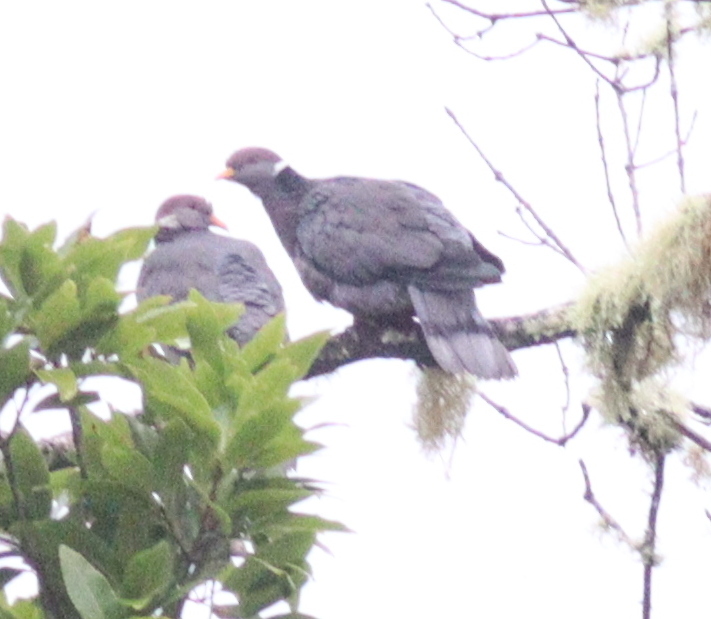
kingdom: Animalia
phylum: Chordata
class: Aves
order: Columbiformes
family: Columbidae
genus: Patagioenas
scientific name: Patagioenas fasciata
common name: Band-tailed pigeon
